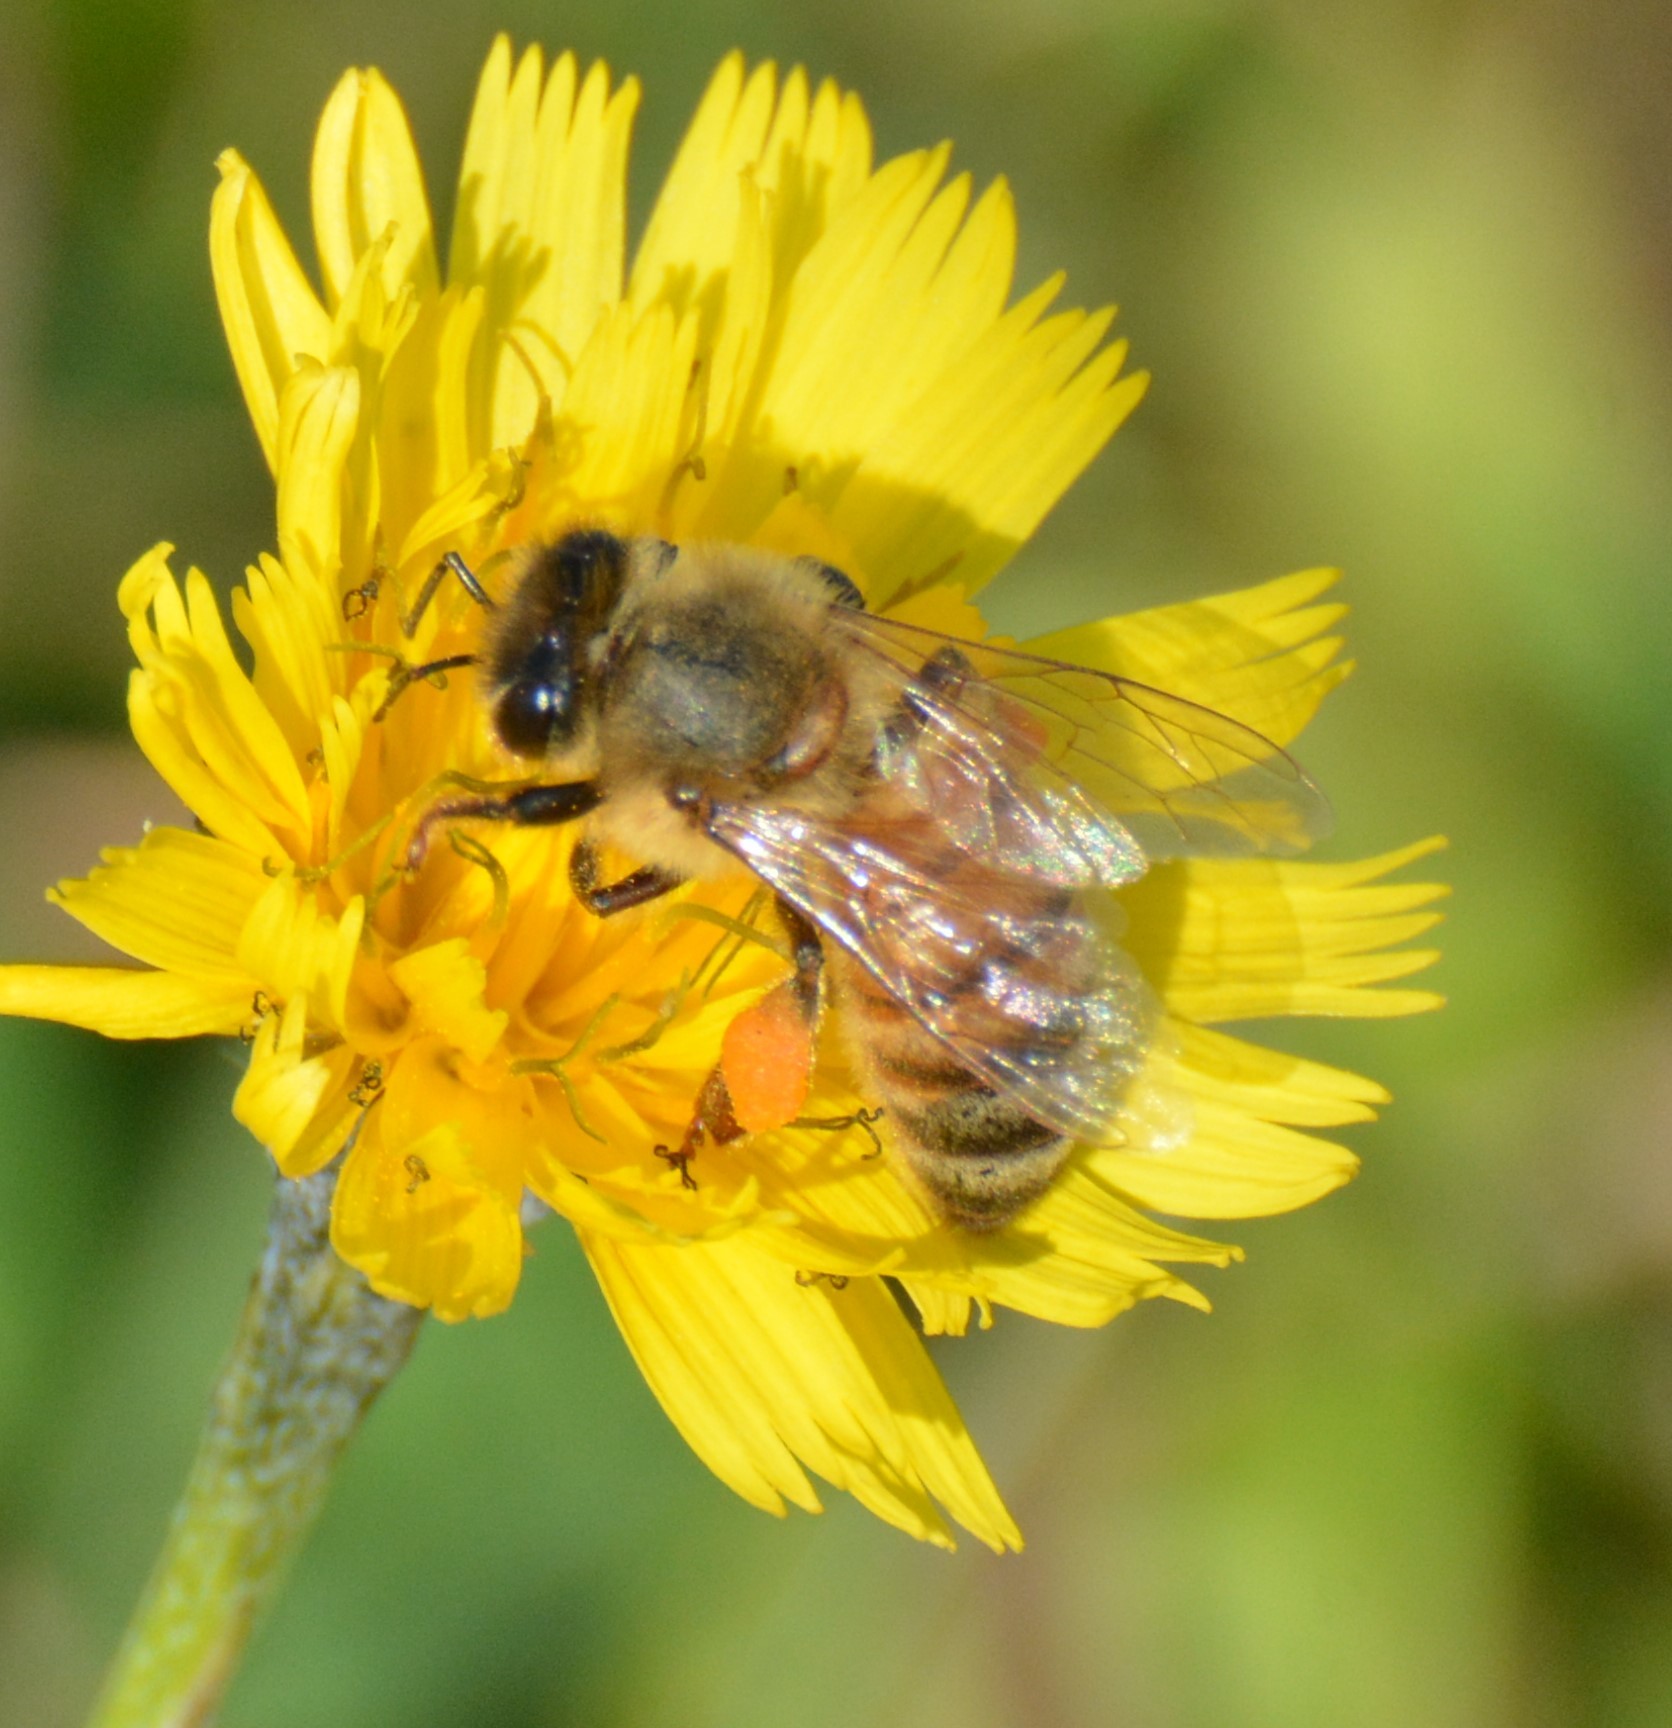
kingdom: Animalia
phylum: Arthropoda
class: Insecta
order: Hymenoptera
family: Apidae
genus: Apis
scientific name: Apis mellifera
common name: Honey bee
